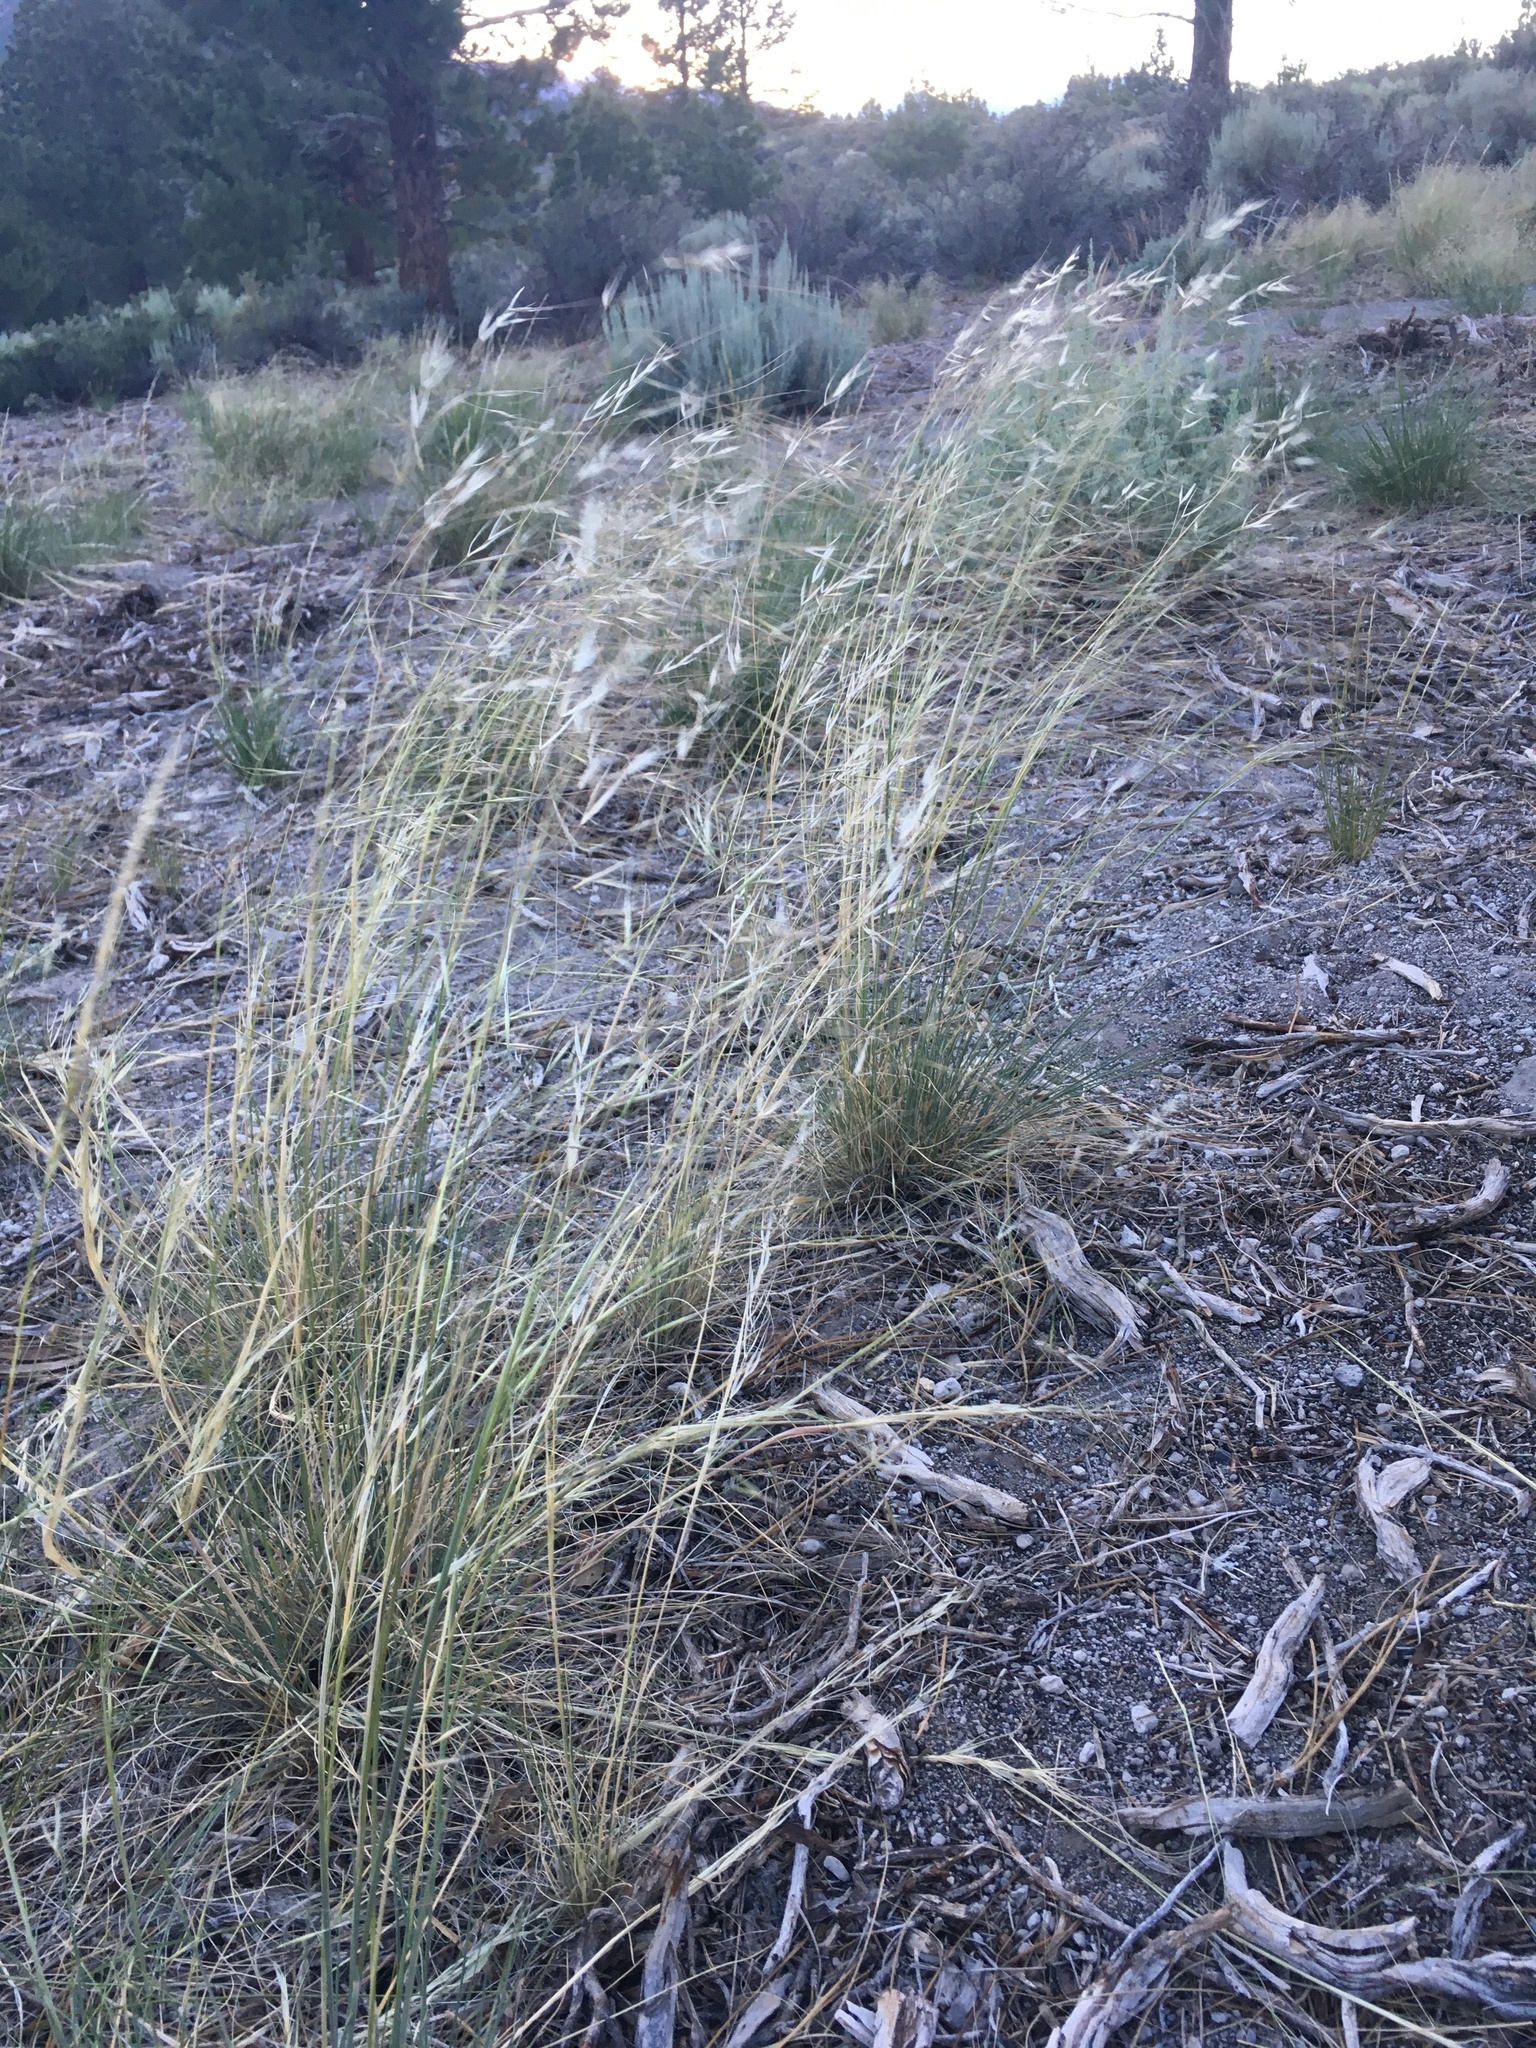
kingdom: Plantae
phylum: Tracheophyta
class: Liliopsida
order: Poales
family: Poaceae
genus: Hesperostipa
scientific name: Hesperostipa comata
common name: Needle-and-thread grass
